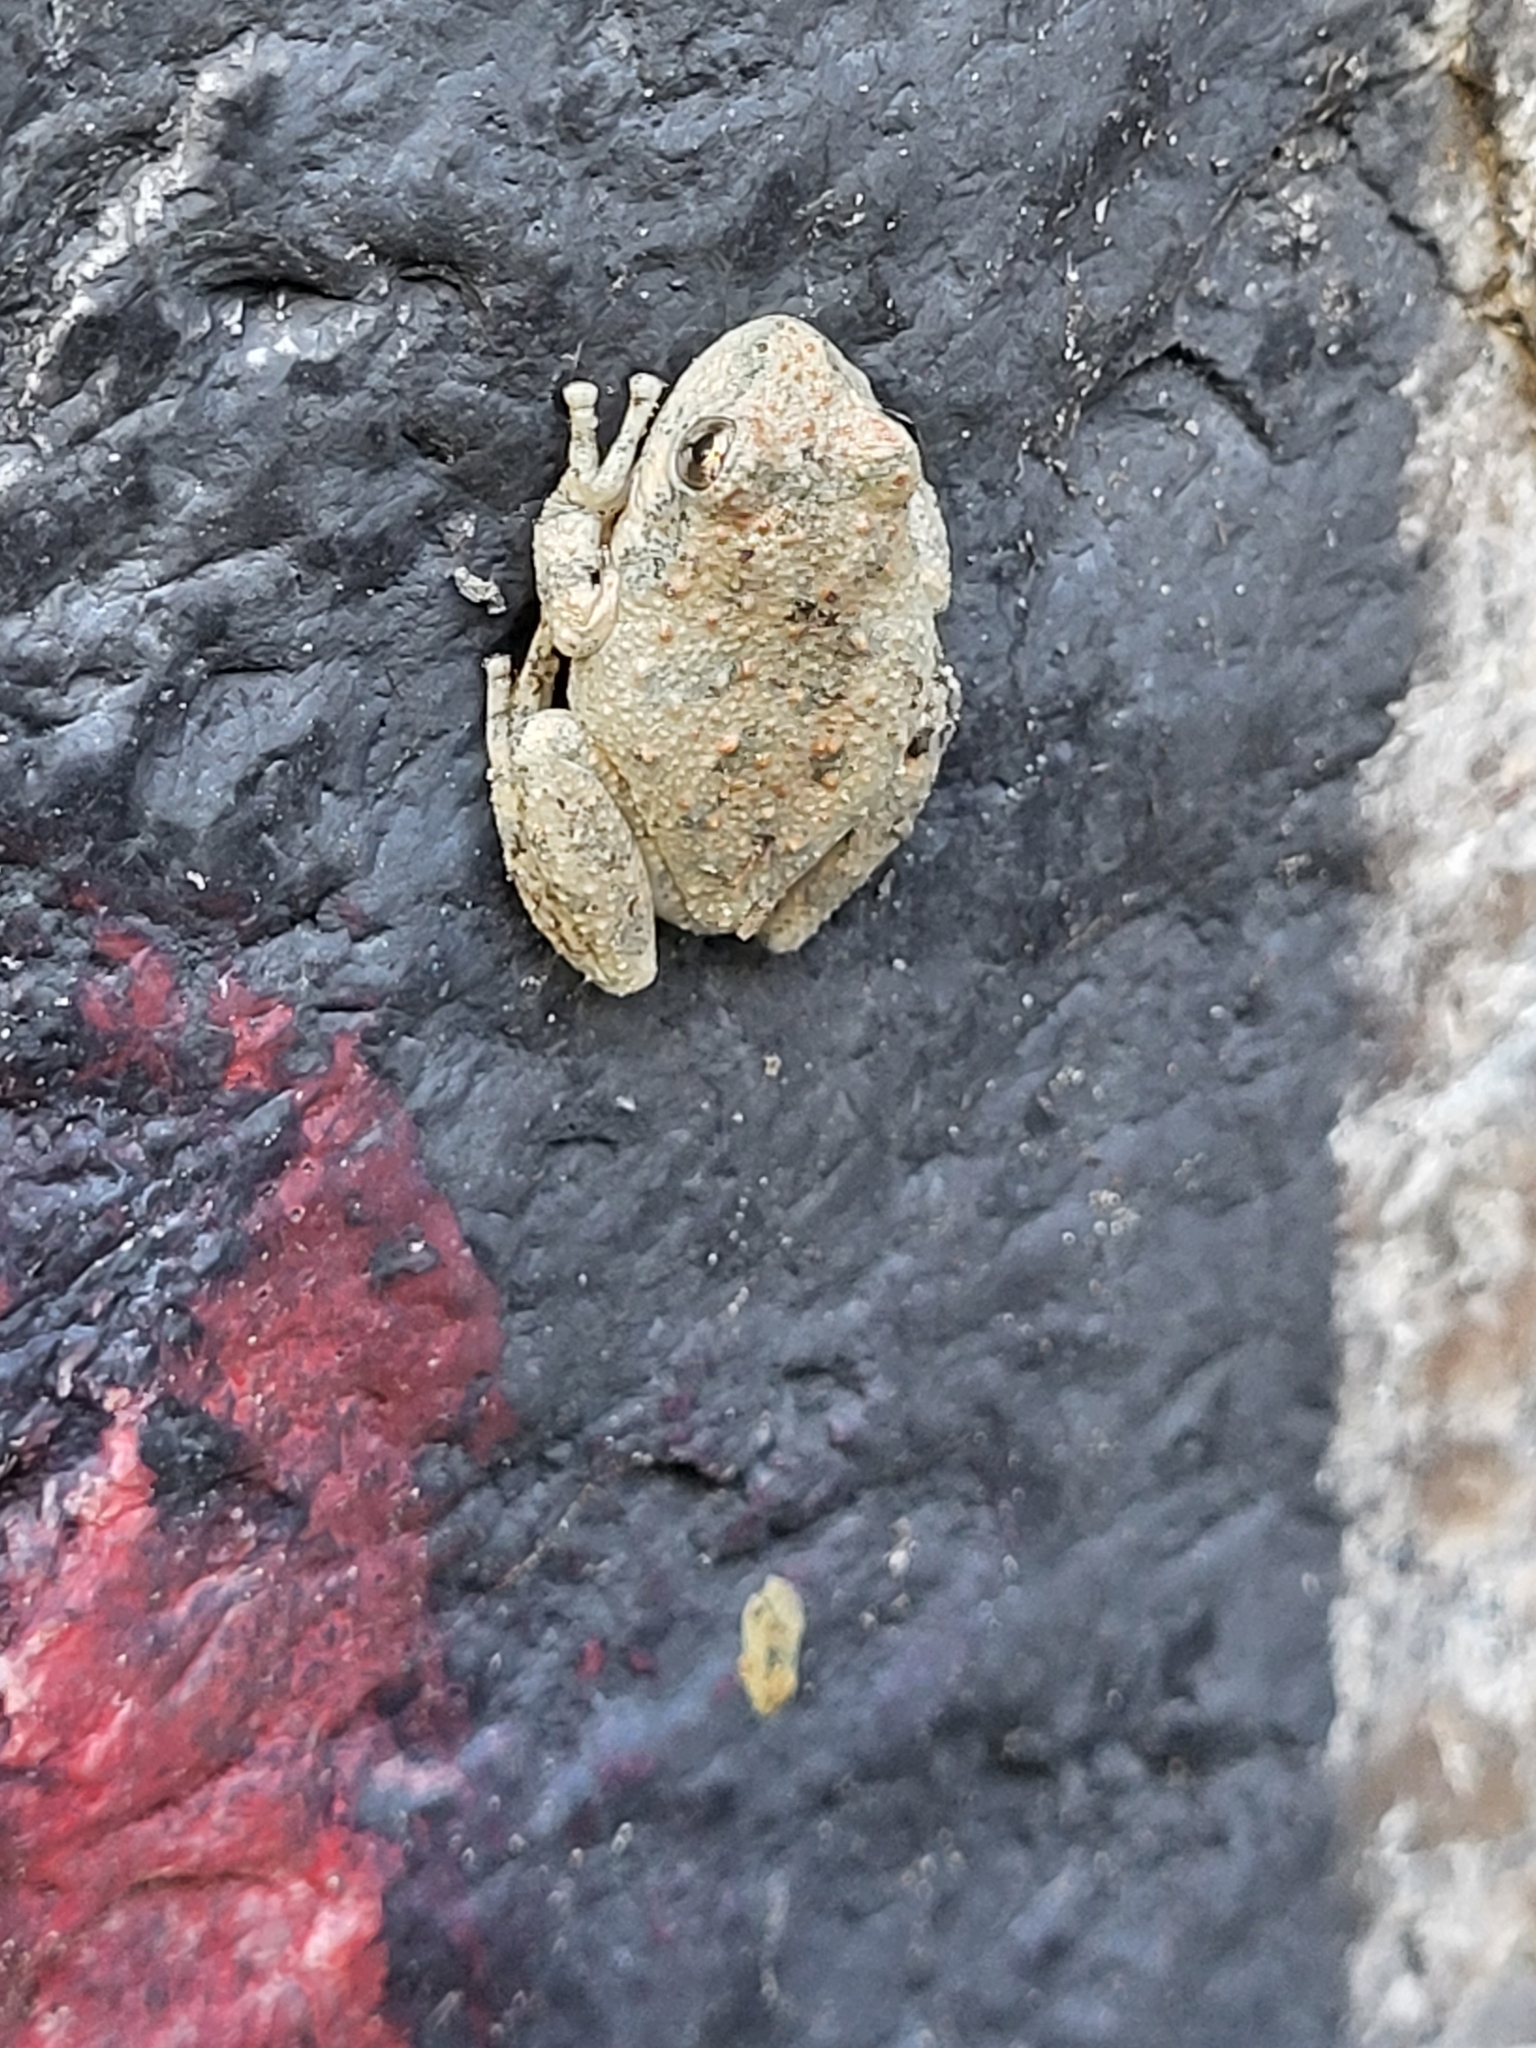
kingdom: Animalia
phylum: Chordata
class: Amphibia
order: Anura
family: Hylidae
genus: Pseudacris
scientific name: Pseudacris cadaverina
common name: California chorus frog
